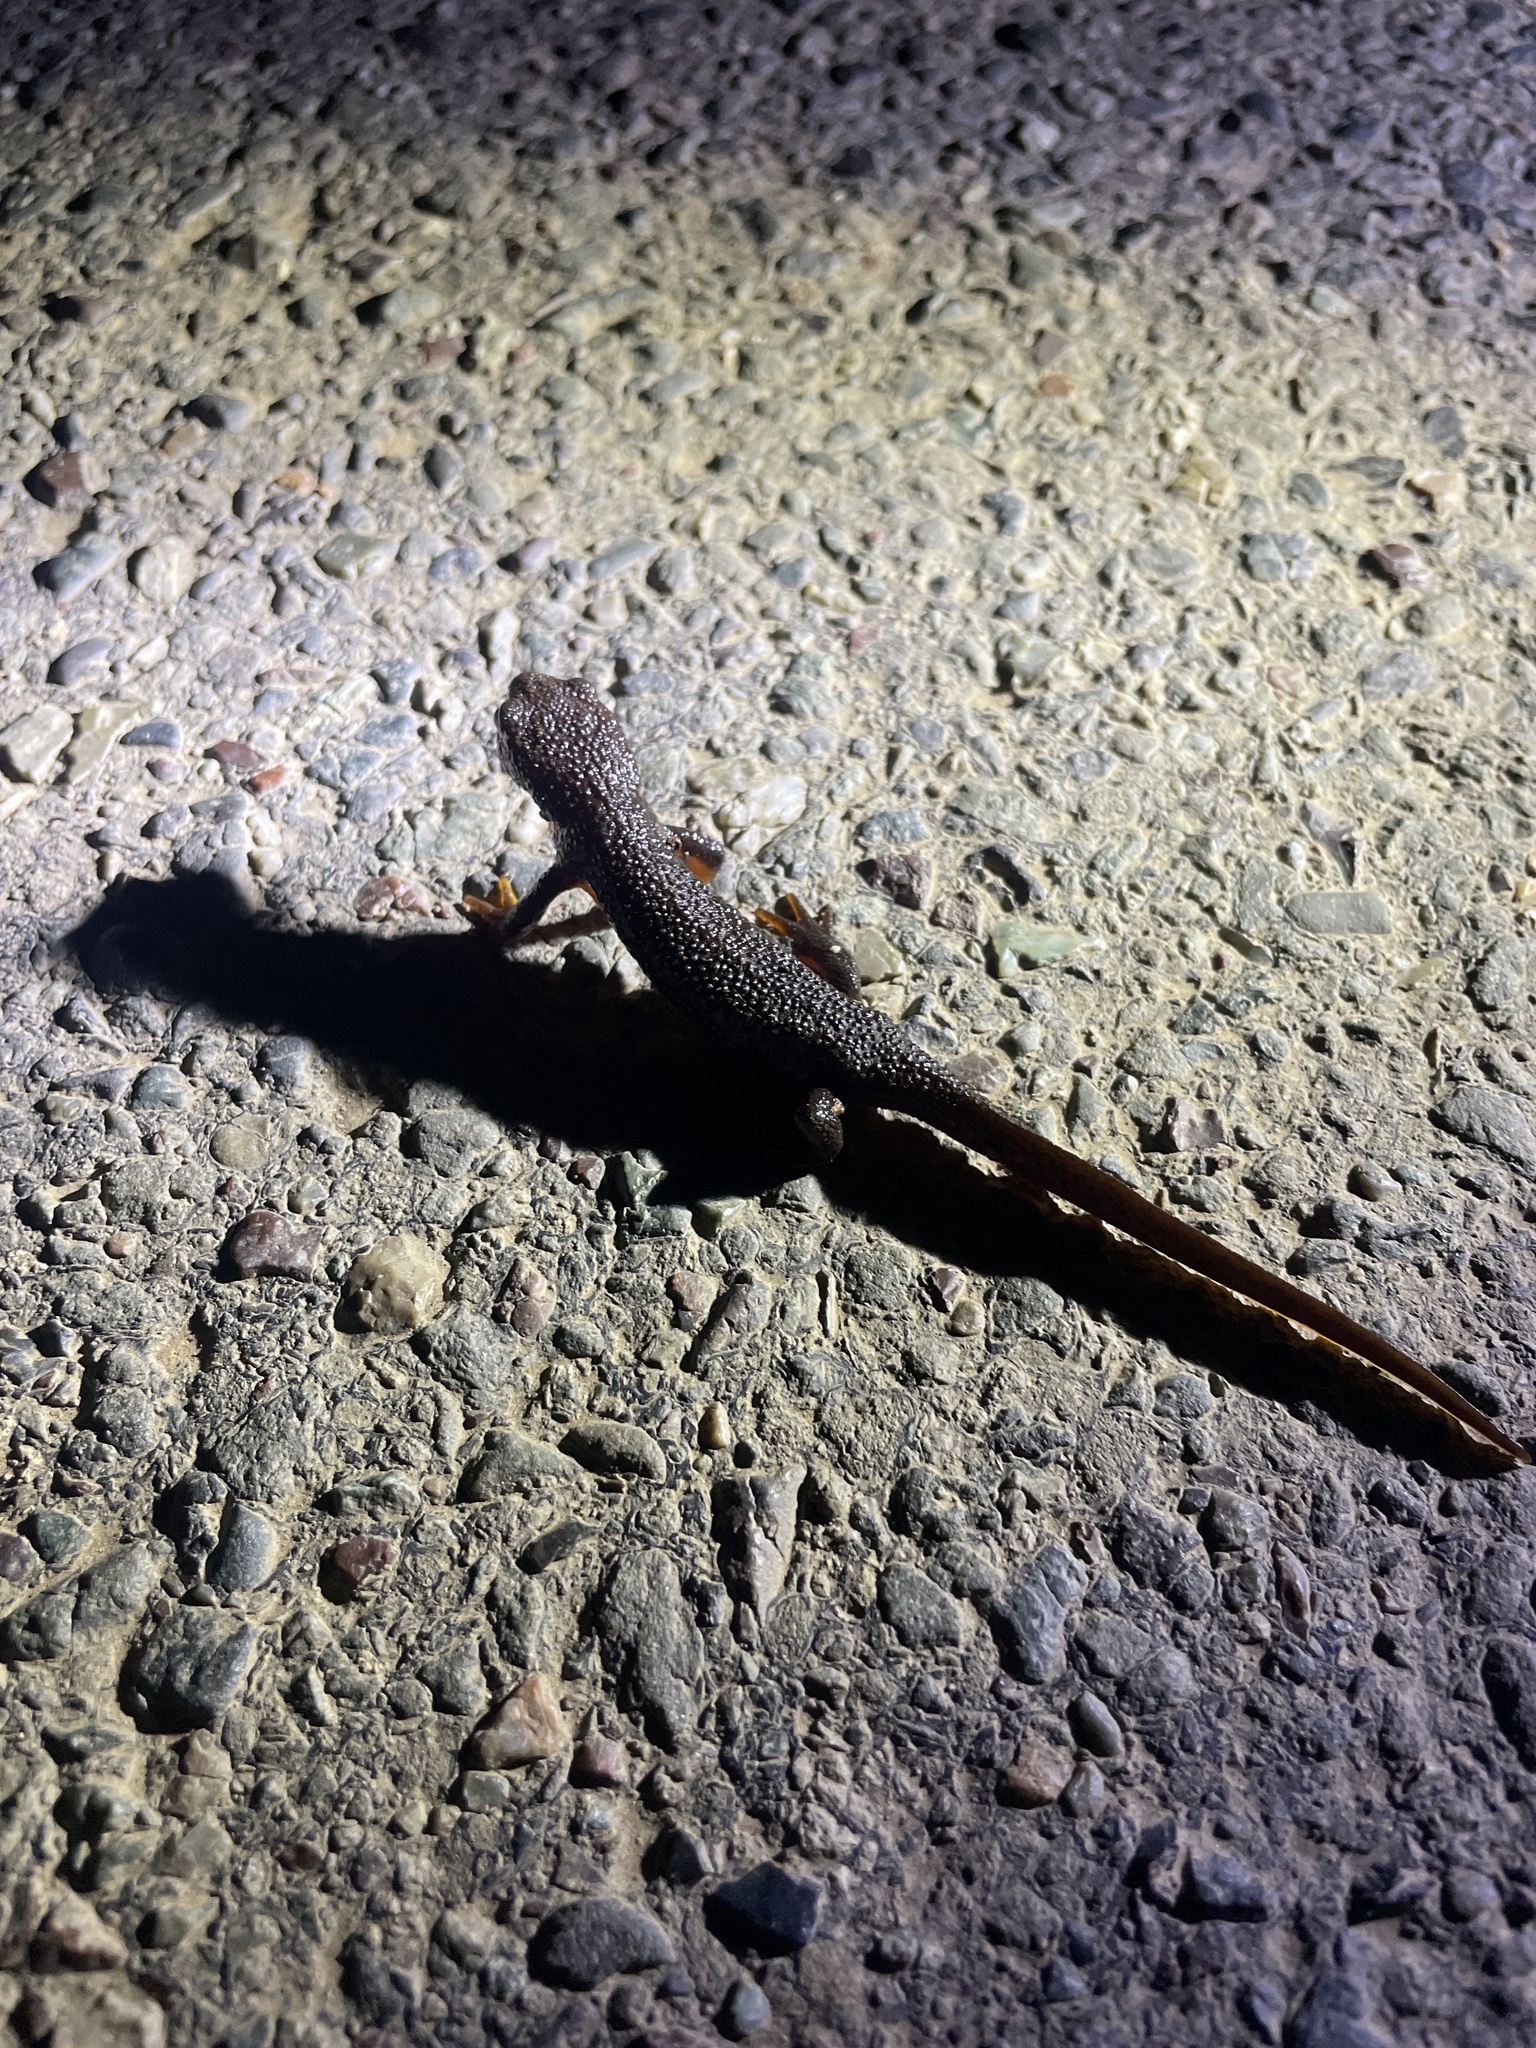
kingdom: Animalia
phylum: Chordata
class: Amphibia
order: Caudata
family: Salamandridae
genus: Taricha
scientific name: Taricha granulosa
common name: Roughskin newt
